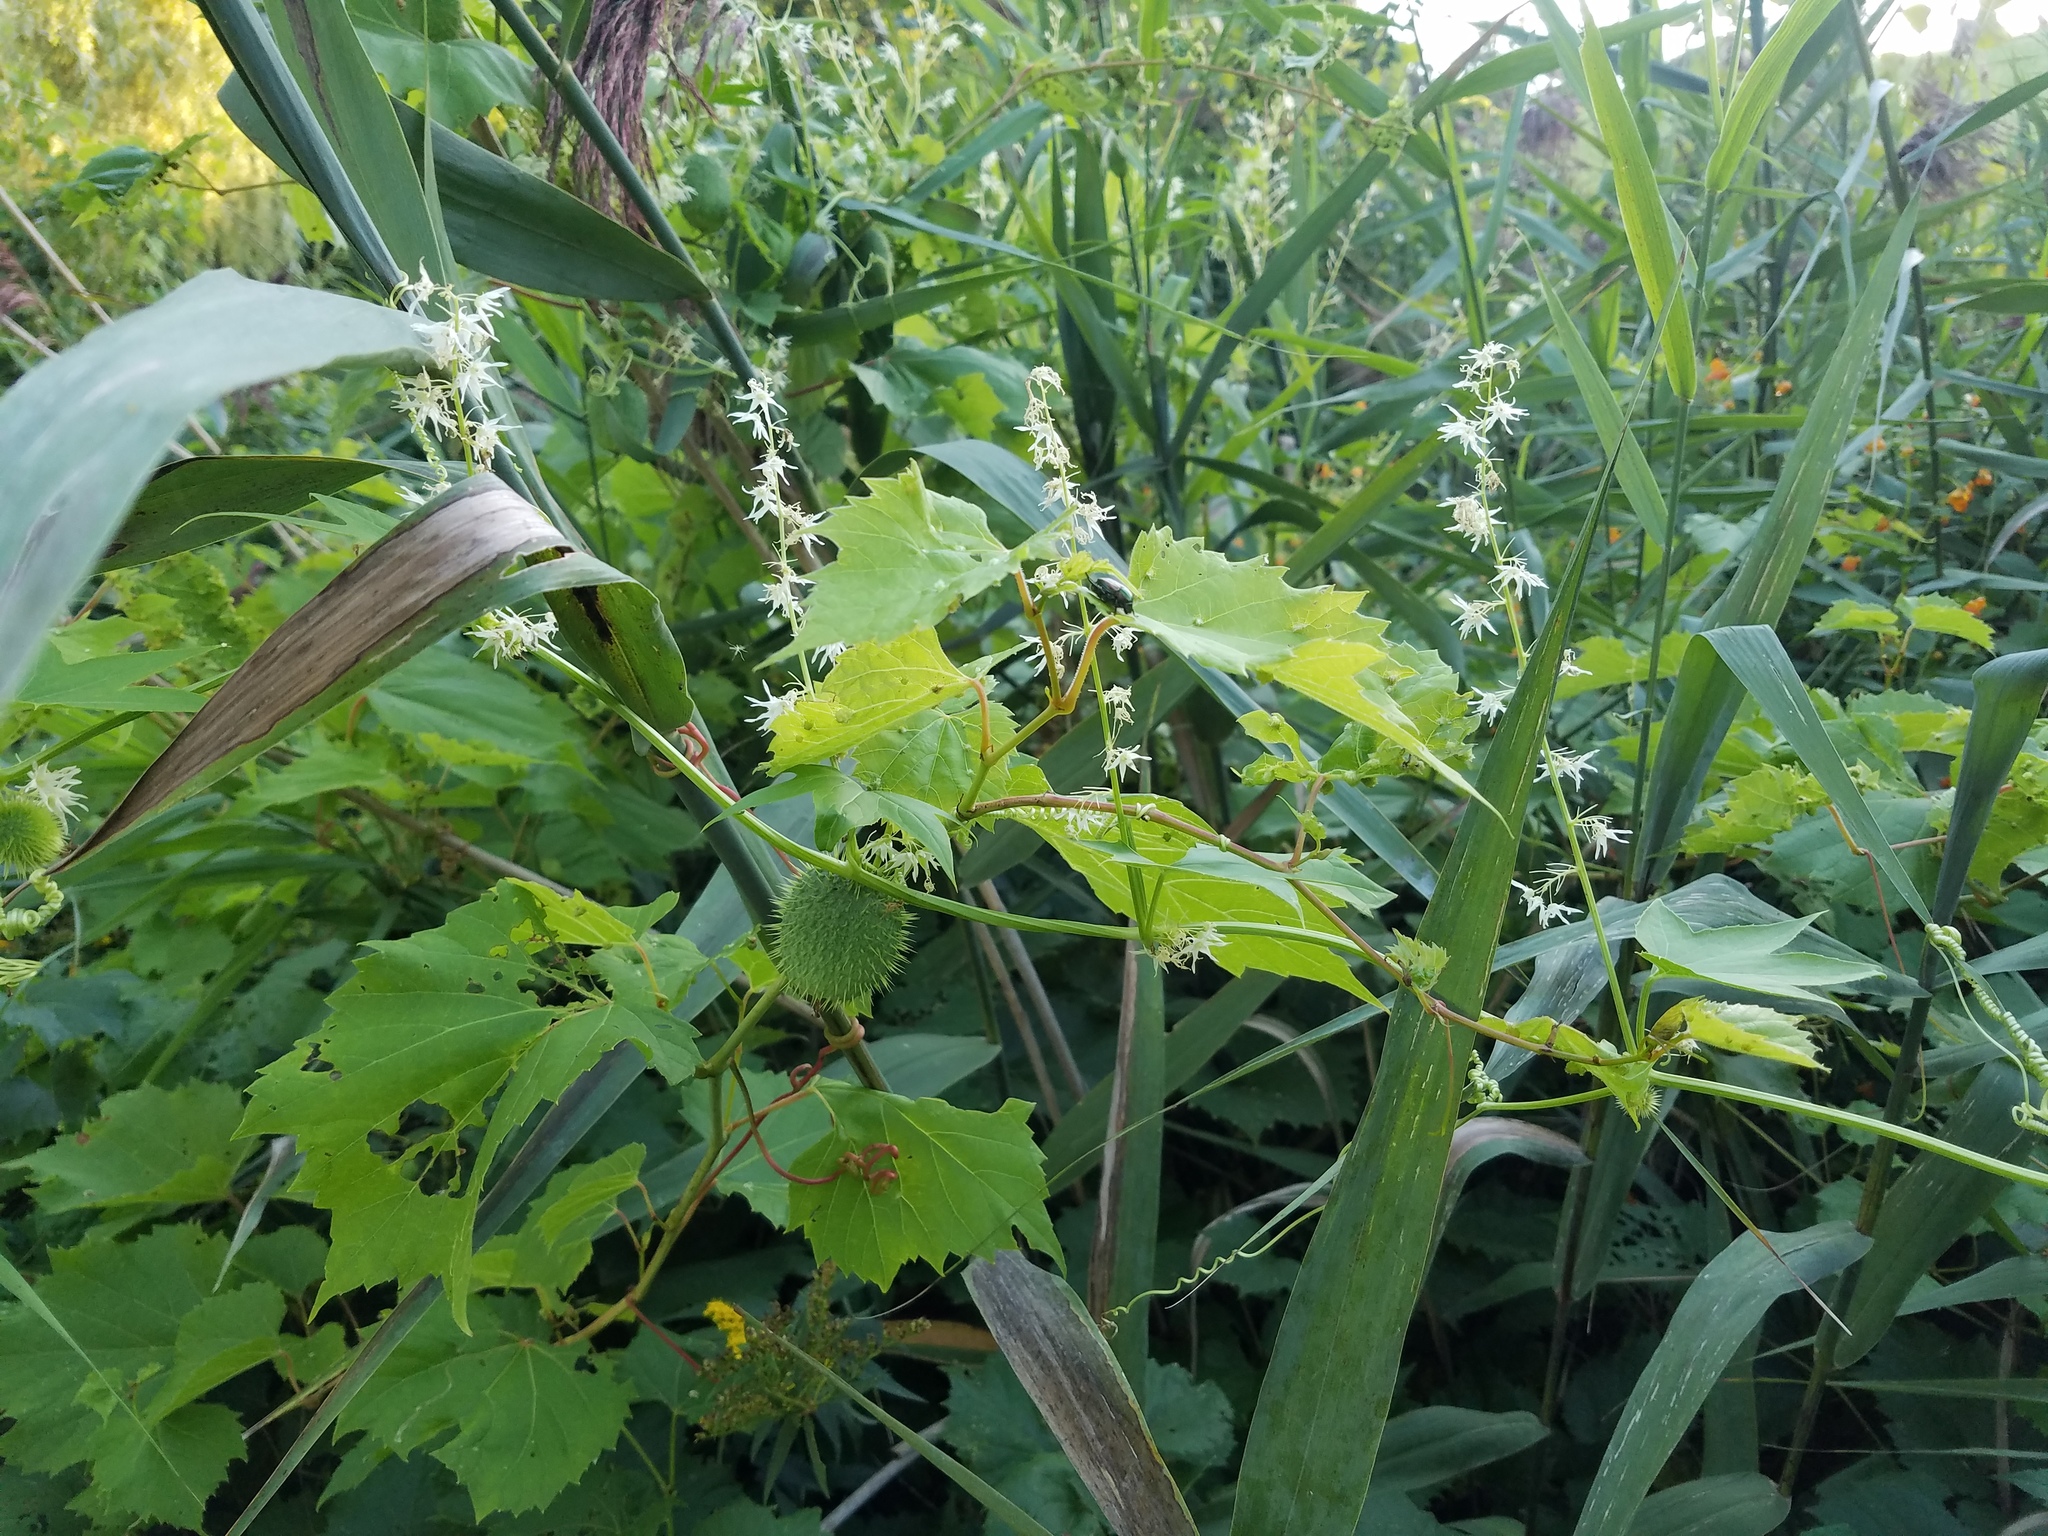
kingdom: Plantae
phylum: Tracheophyta
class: Magnoliopsida
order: Cucurbitales
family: Cucurbitaceae
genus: Echinocystis
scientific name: Echinocystis lobata
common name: Wild cucumber
